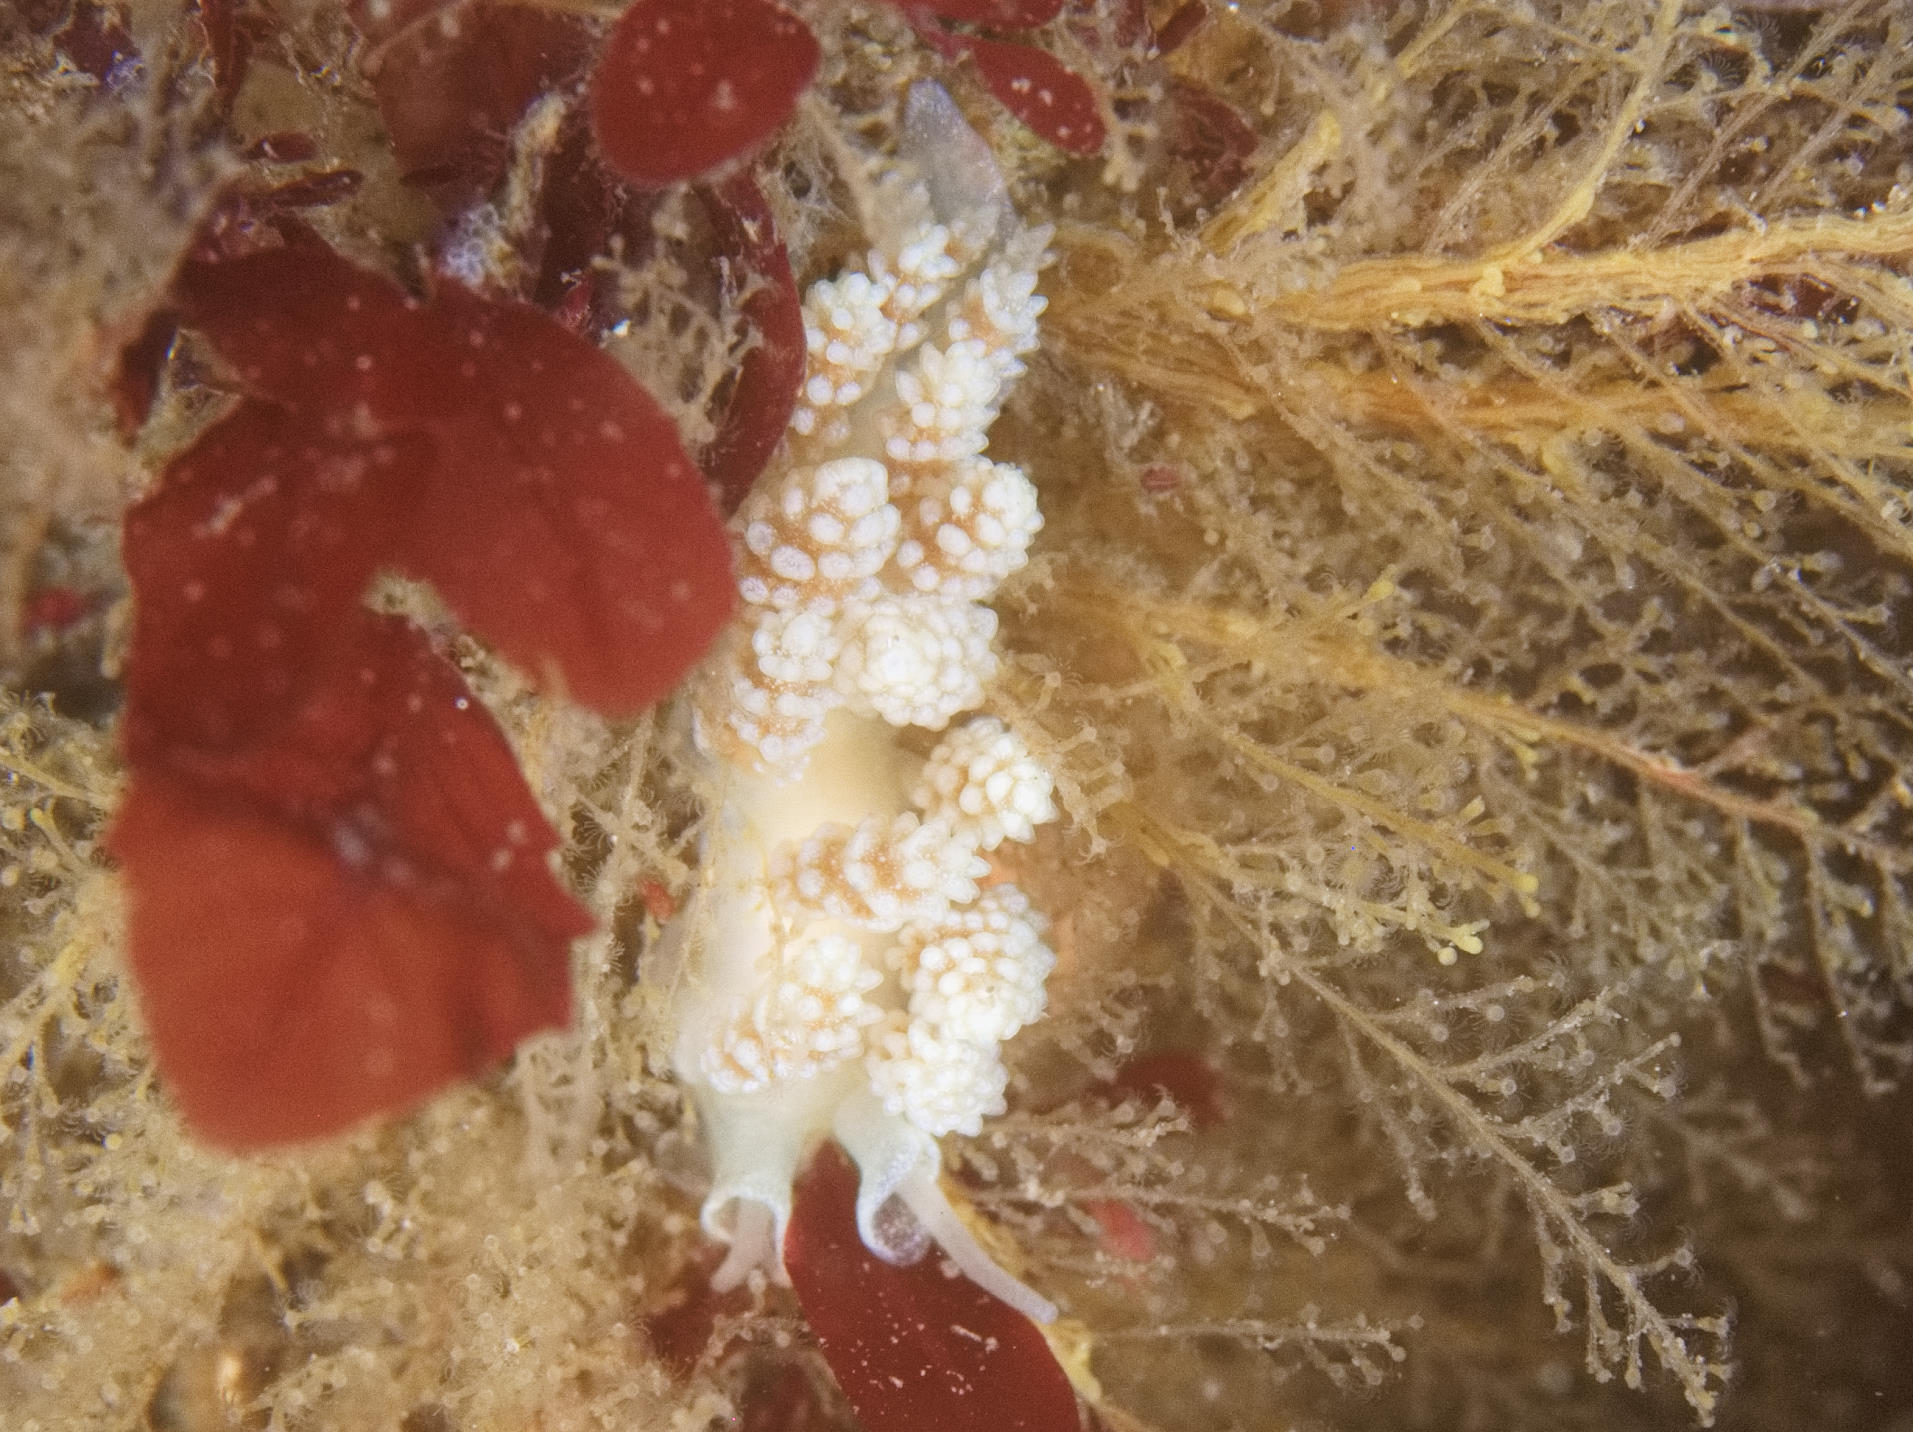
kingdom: Animalia
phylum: Mollusca
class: Gastropoda
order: Nudibranchia
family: Dotidae
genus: Doto
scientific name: Doto fragilis
